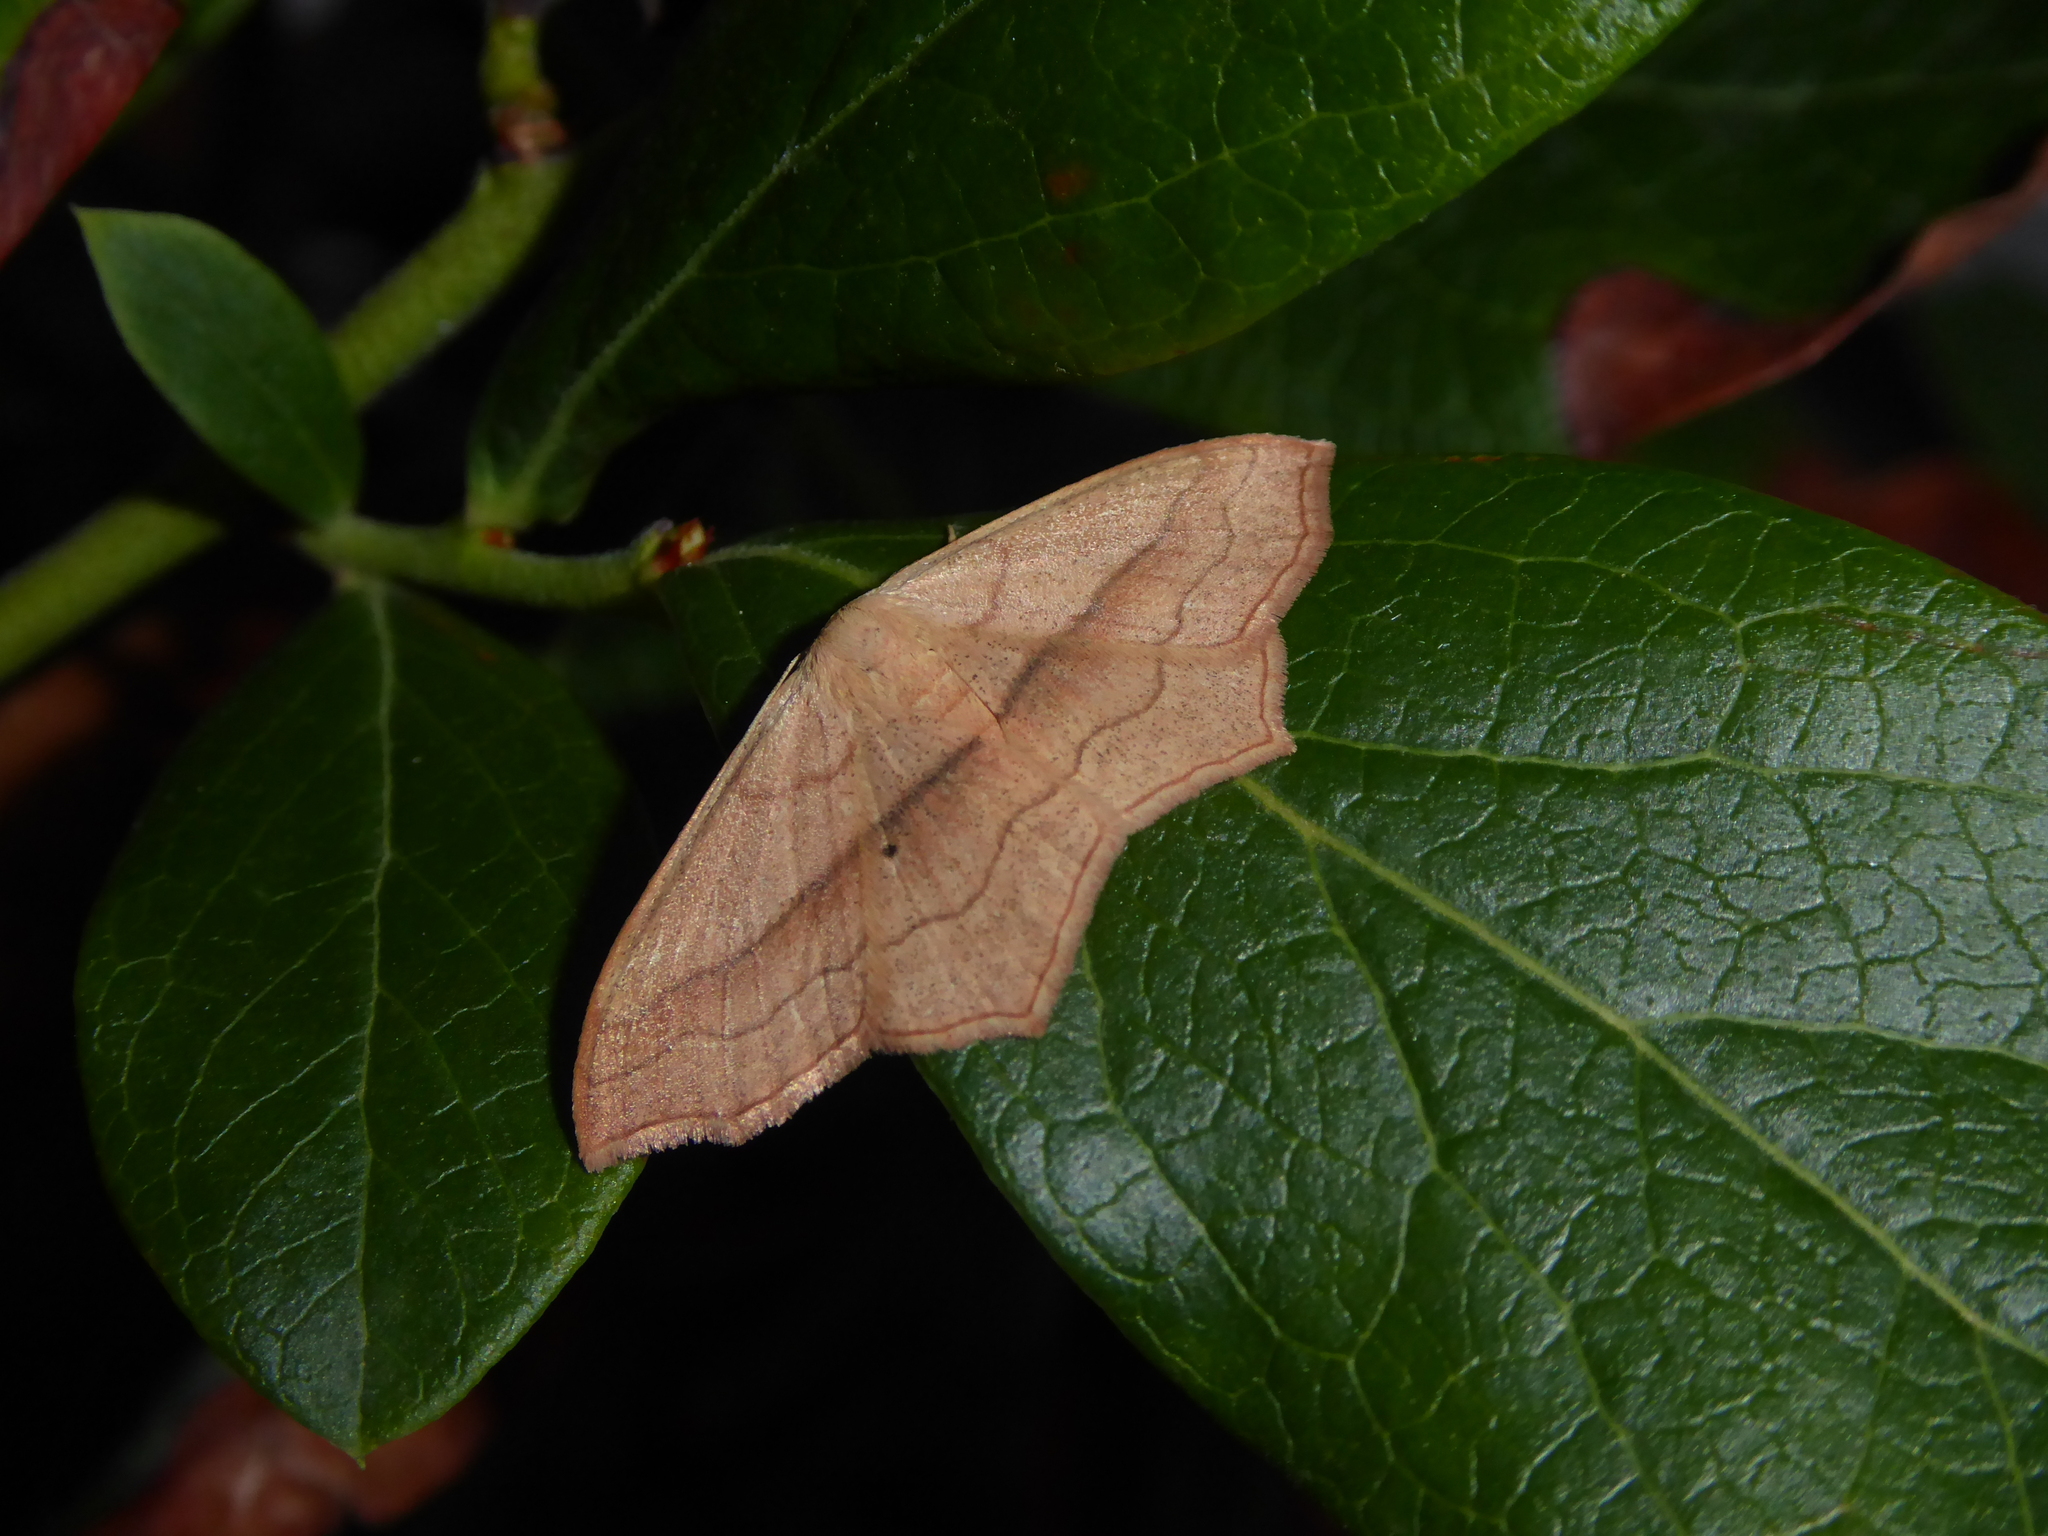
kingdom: Animalia
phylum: Arthropoda
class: Insecta
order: Lepidoptera
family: Geometridae
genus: Scopula
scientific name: Scopula imitaria
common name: Small blood-vein
